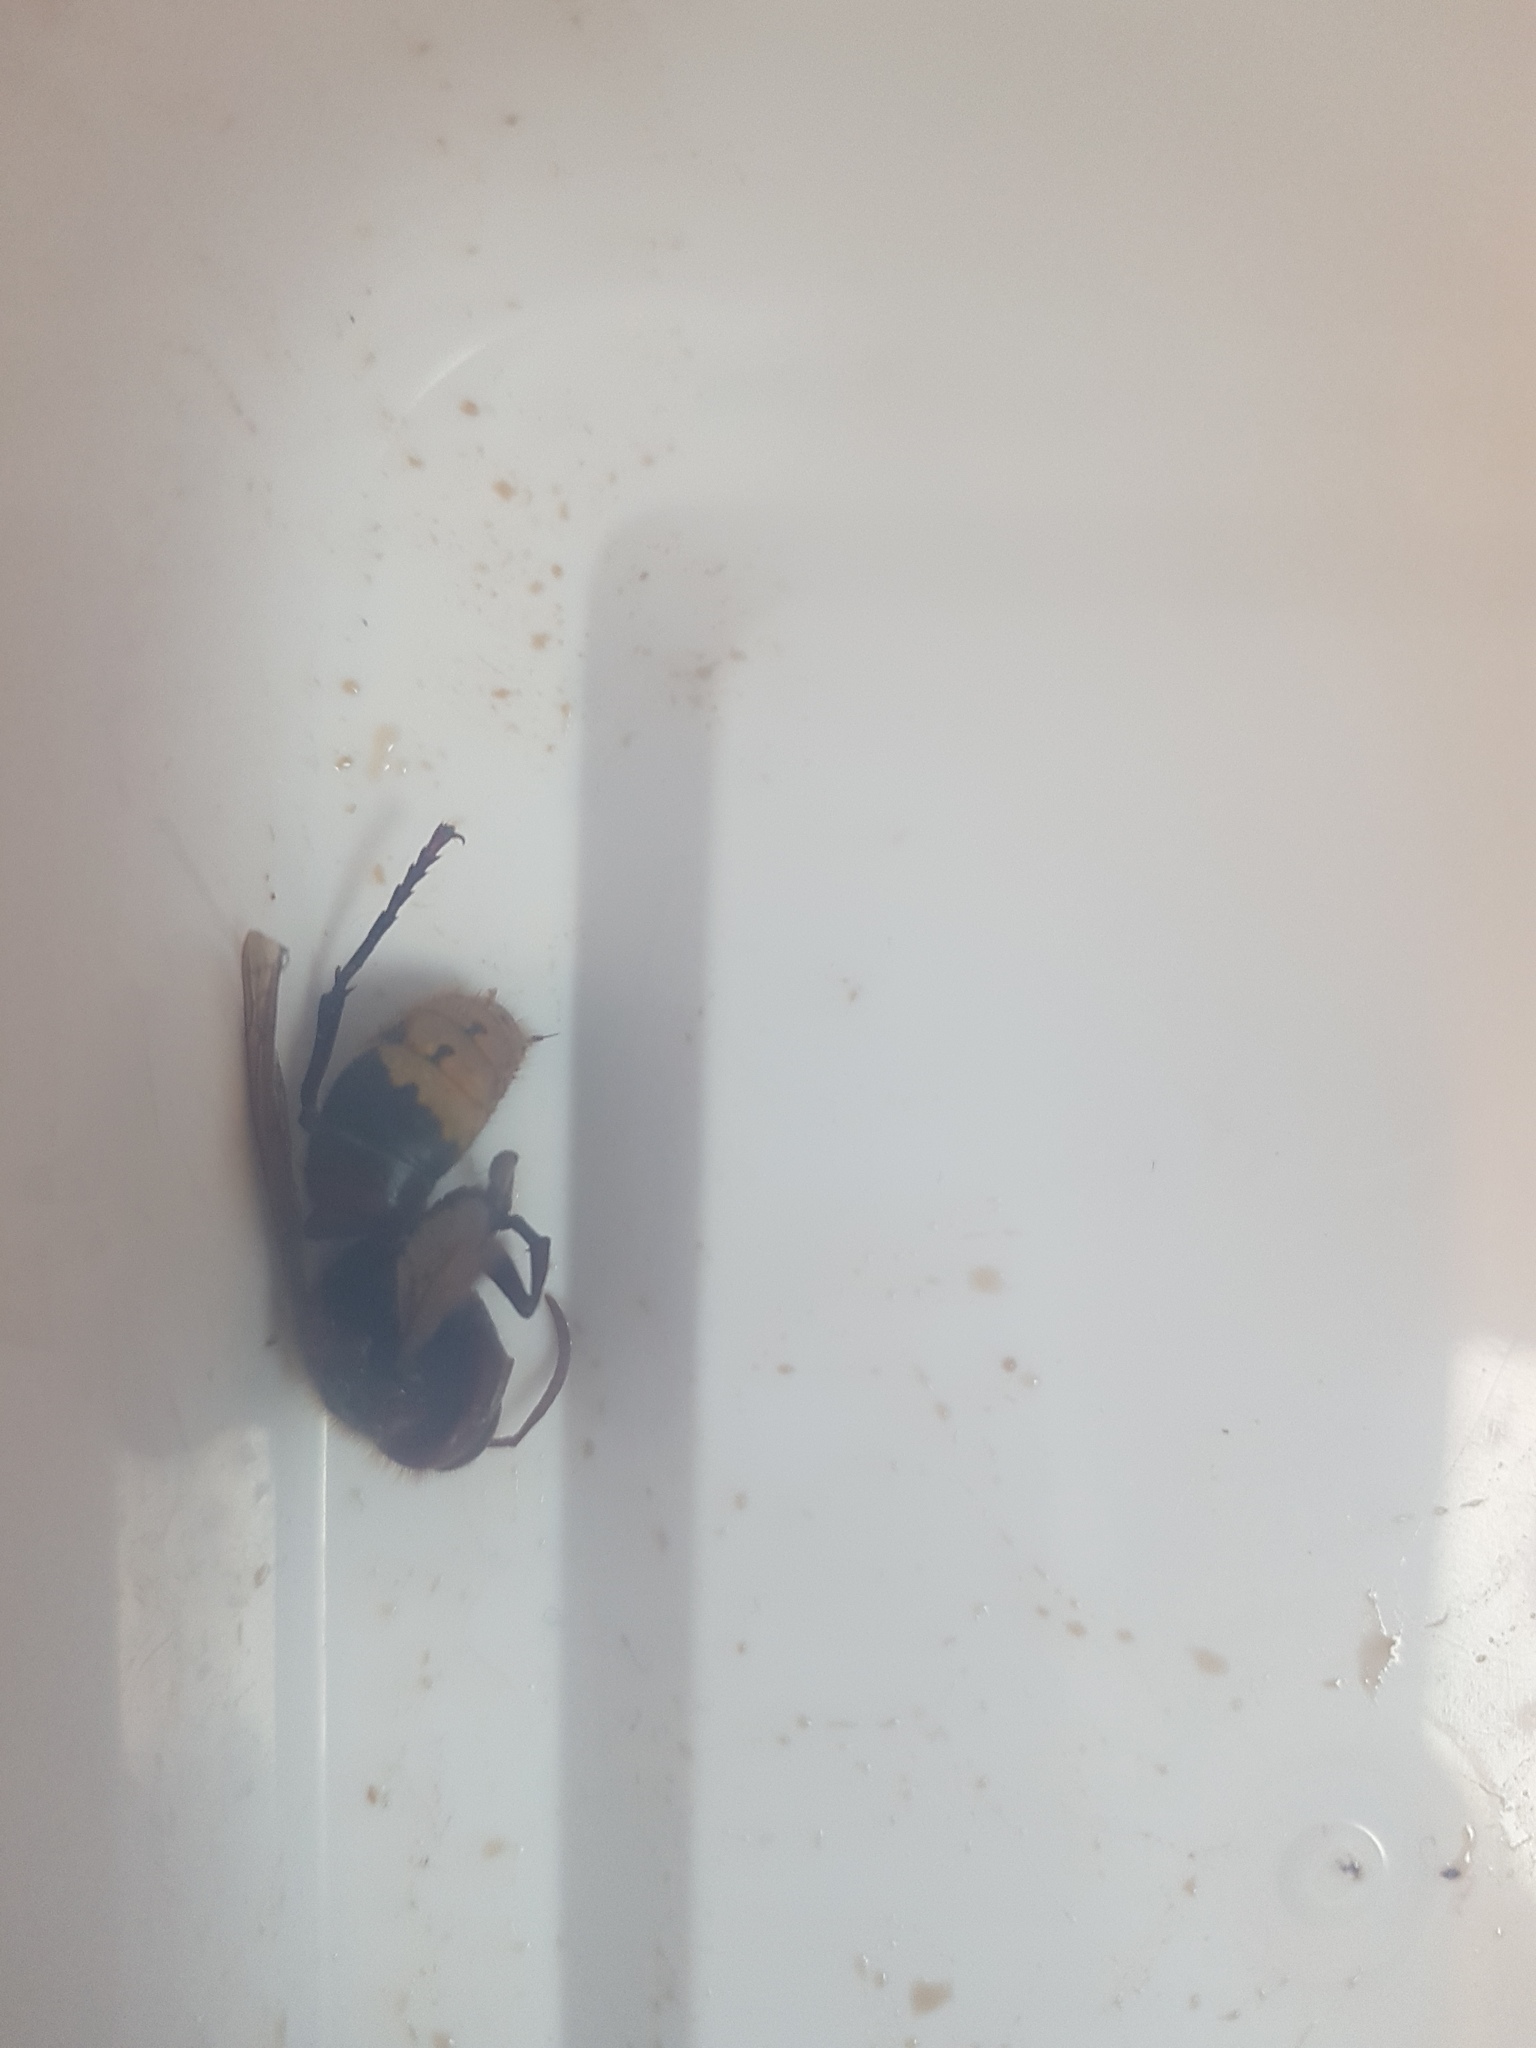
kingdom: Animalia
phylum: Arthropoda
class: Insecta
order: Hymenoptera
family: Vespidae
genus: Vespa
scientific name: Vespa crabro
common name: Hornet
